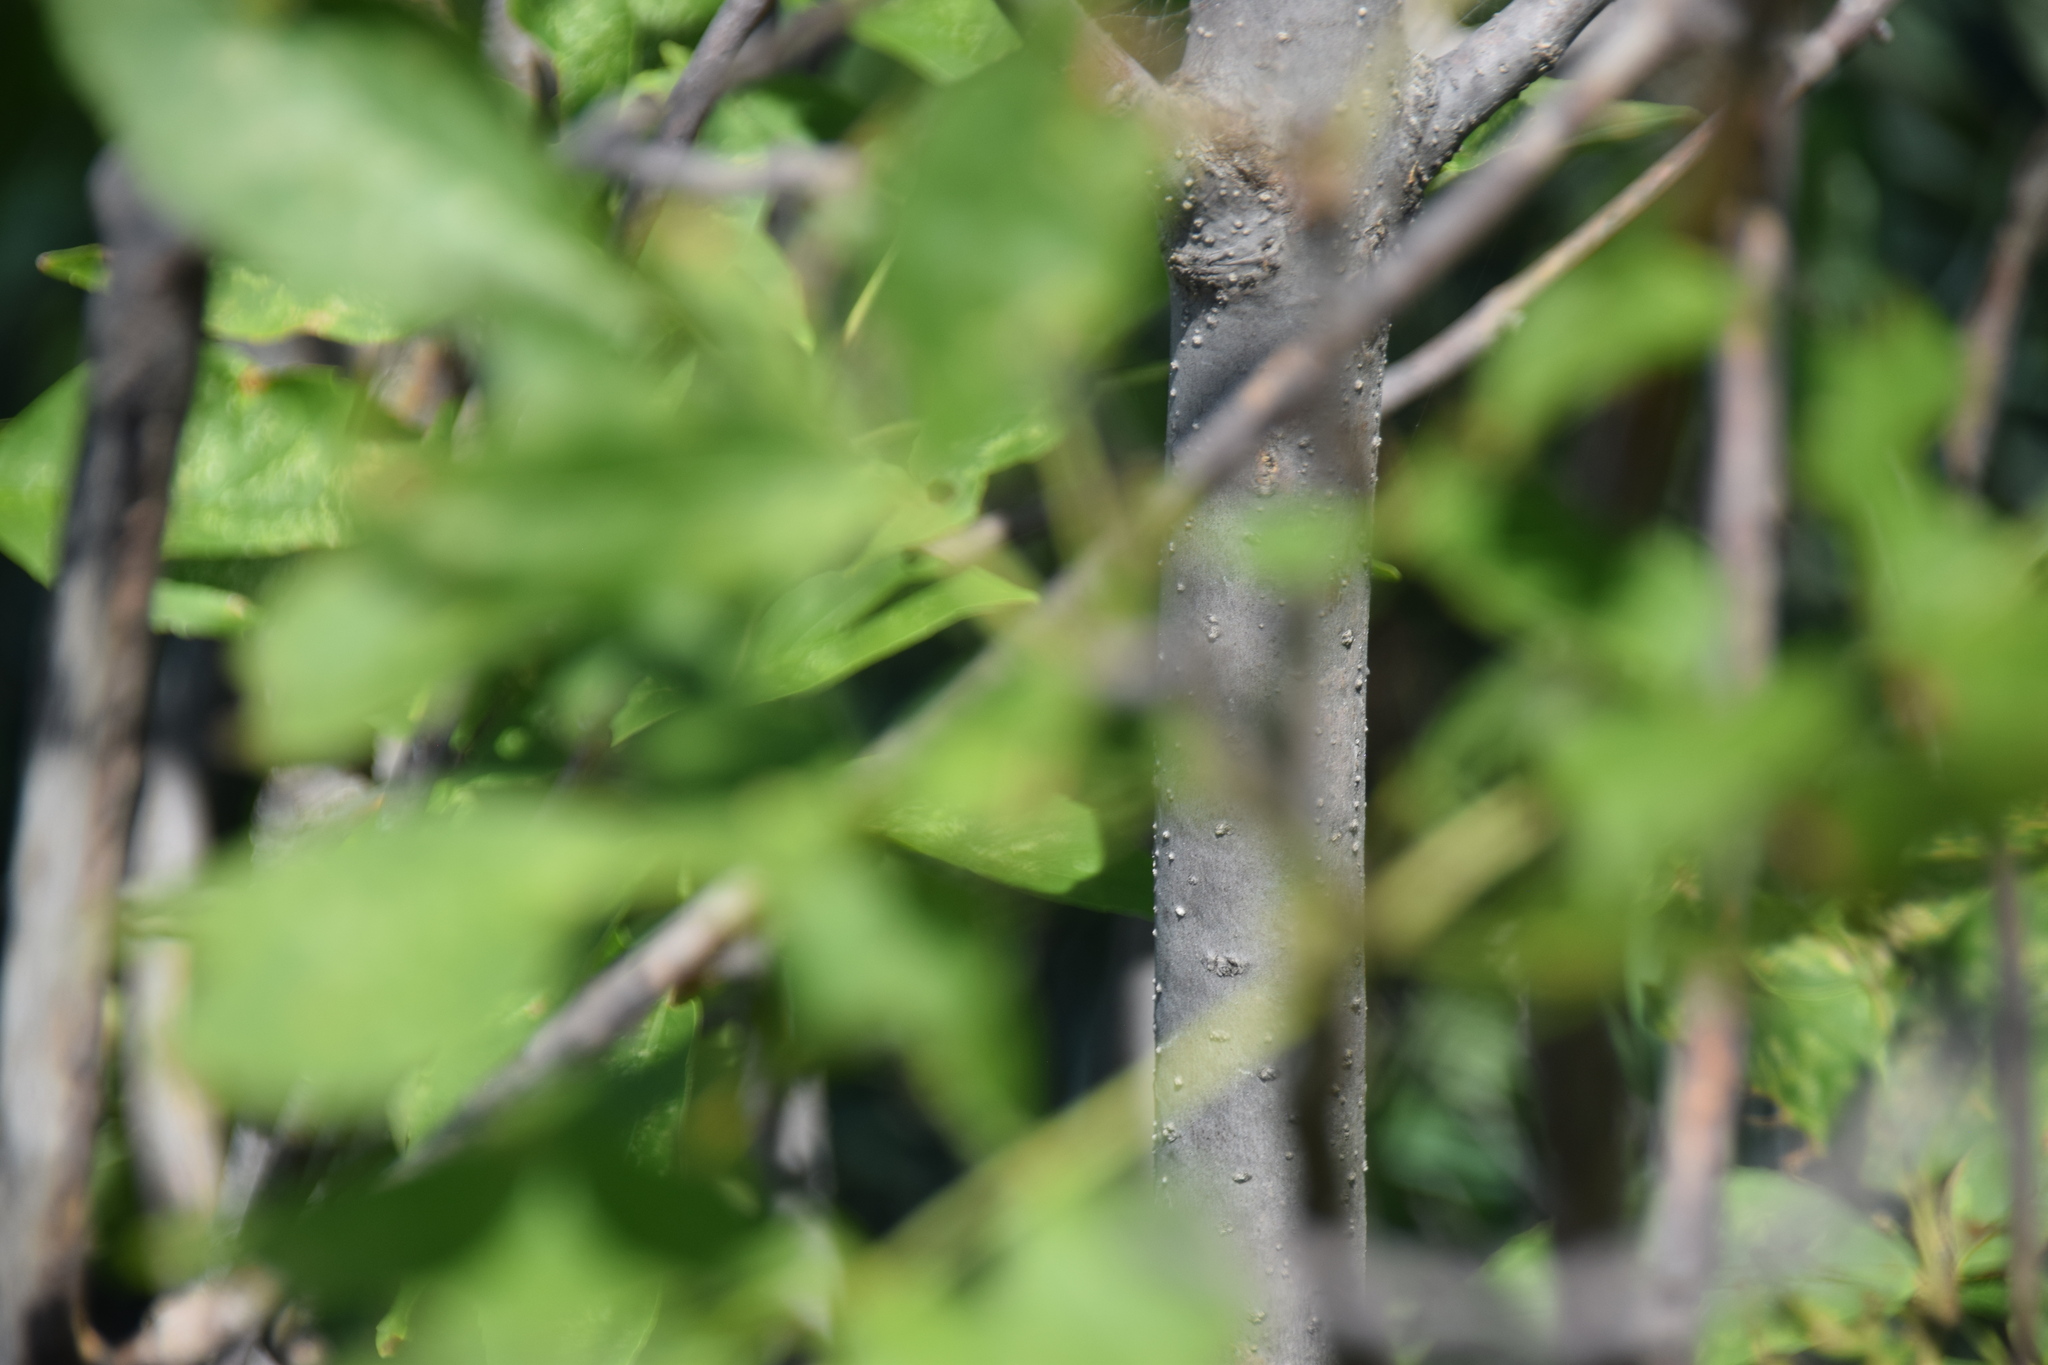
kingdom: Plantae
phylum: Tracheophyta
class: Magnoliopsida
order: Lamiales
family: Oleaceae
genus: Fraxinus
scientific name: Fraxinus pennsylvanica
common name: Green ash
